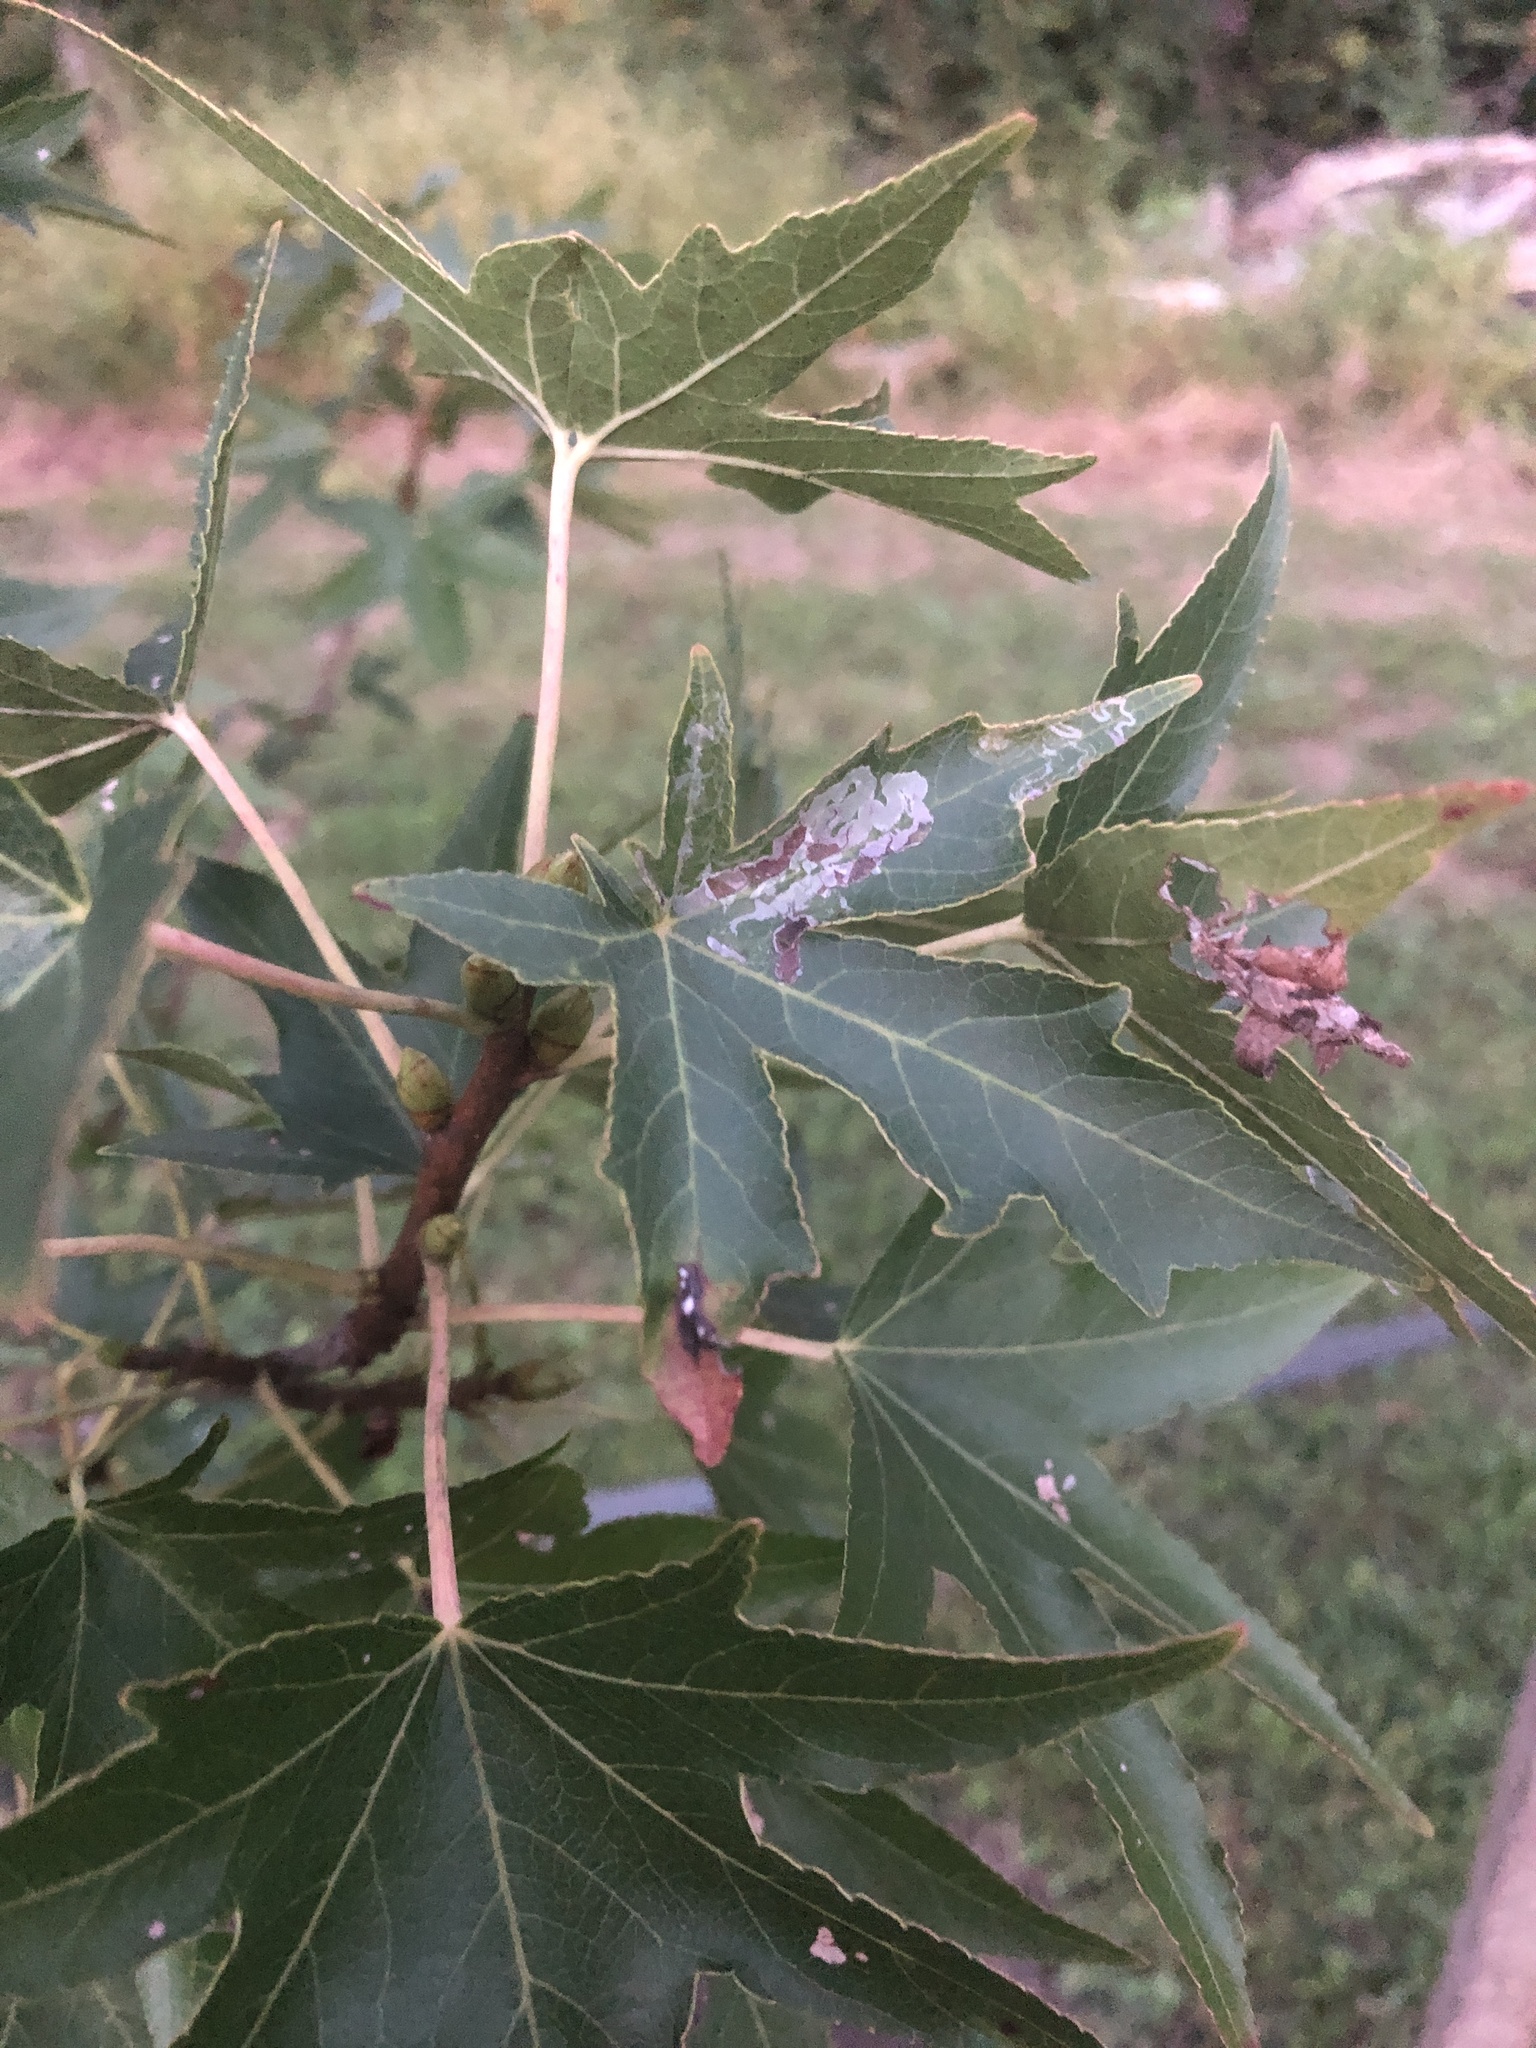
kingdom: Animalia
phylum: Arthropoda
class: Insecta
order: Lepidoptera
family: Gracillariidae
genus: Phyllocnistis
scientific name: Phyllocnistis liquidambarisella
